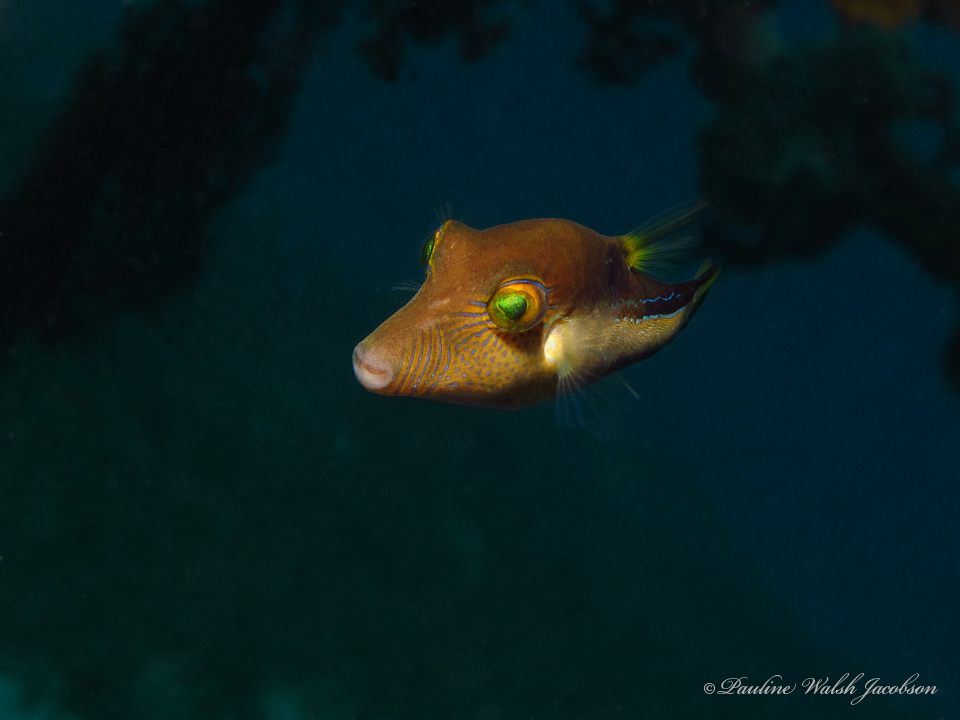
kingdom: Animalia
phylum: Chordata
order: Tetraodontiformes
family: Tetraodontidae
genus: Canthigaster
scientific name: Canthigaster rostrata
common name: Caribbean sharpnose-puffer
